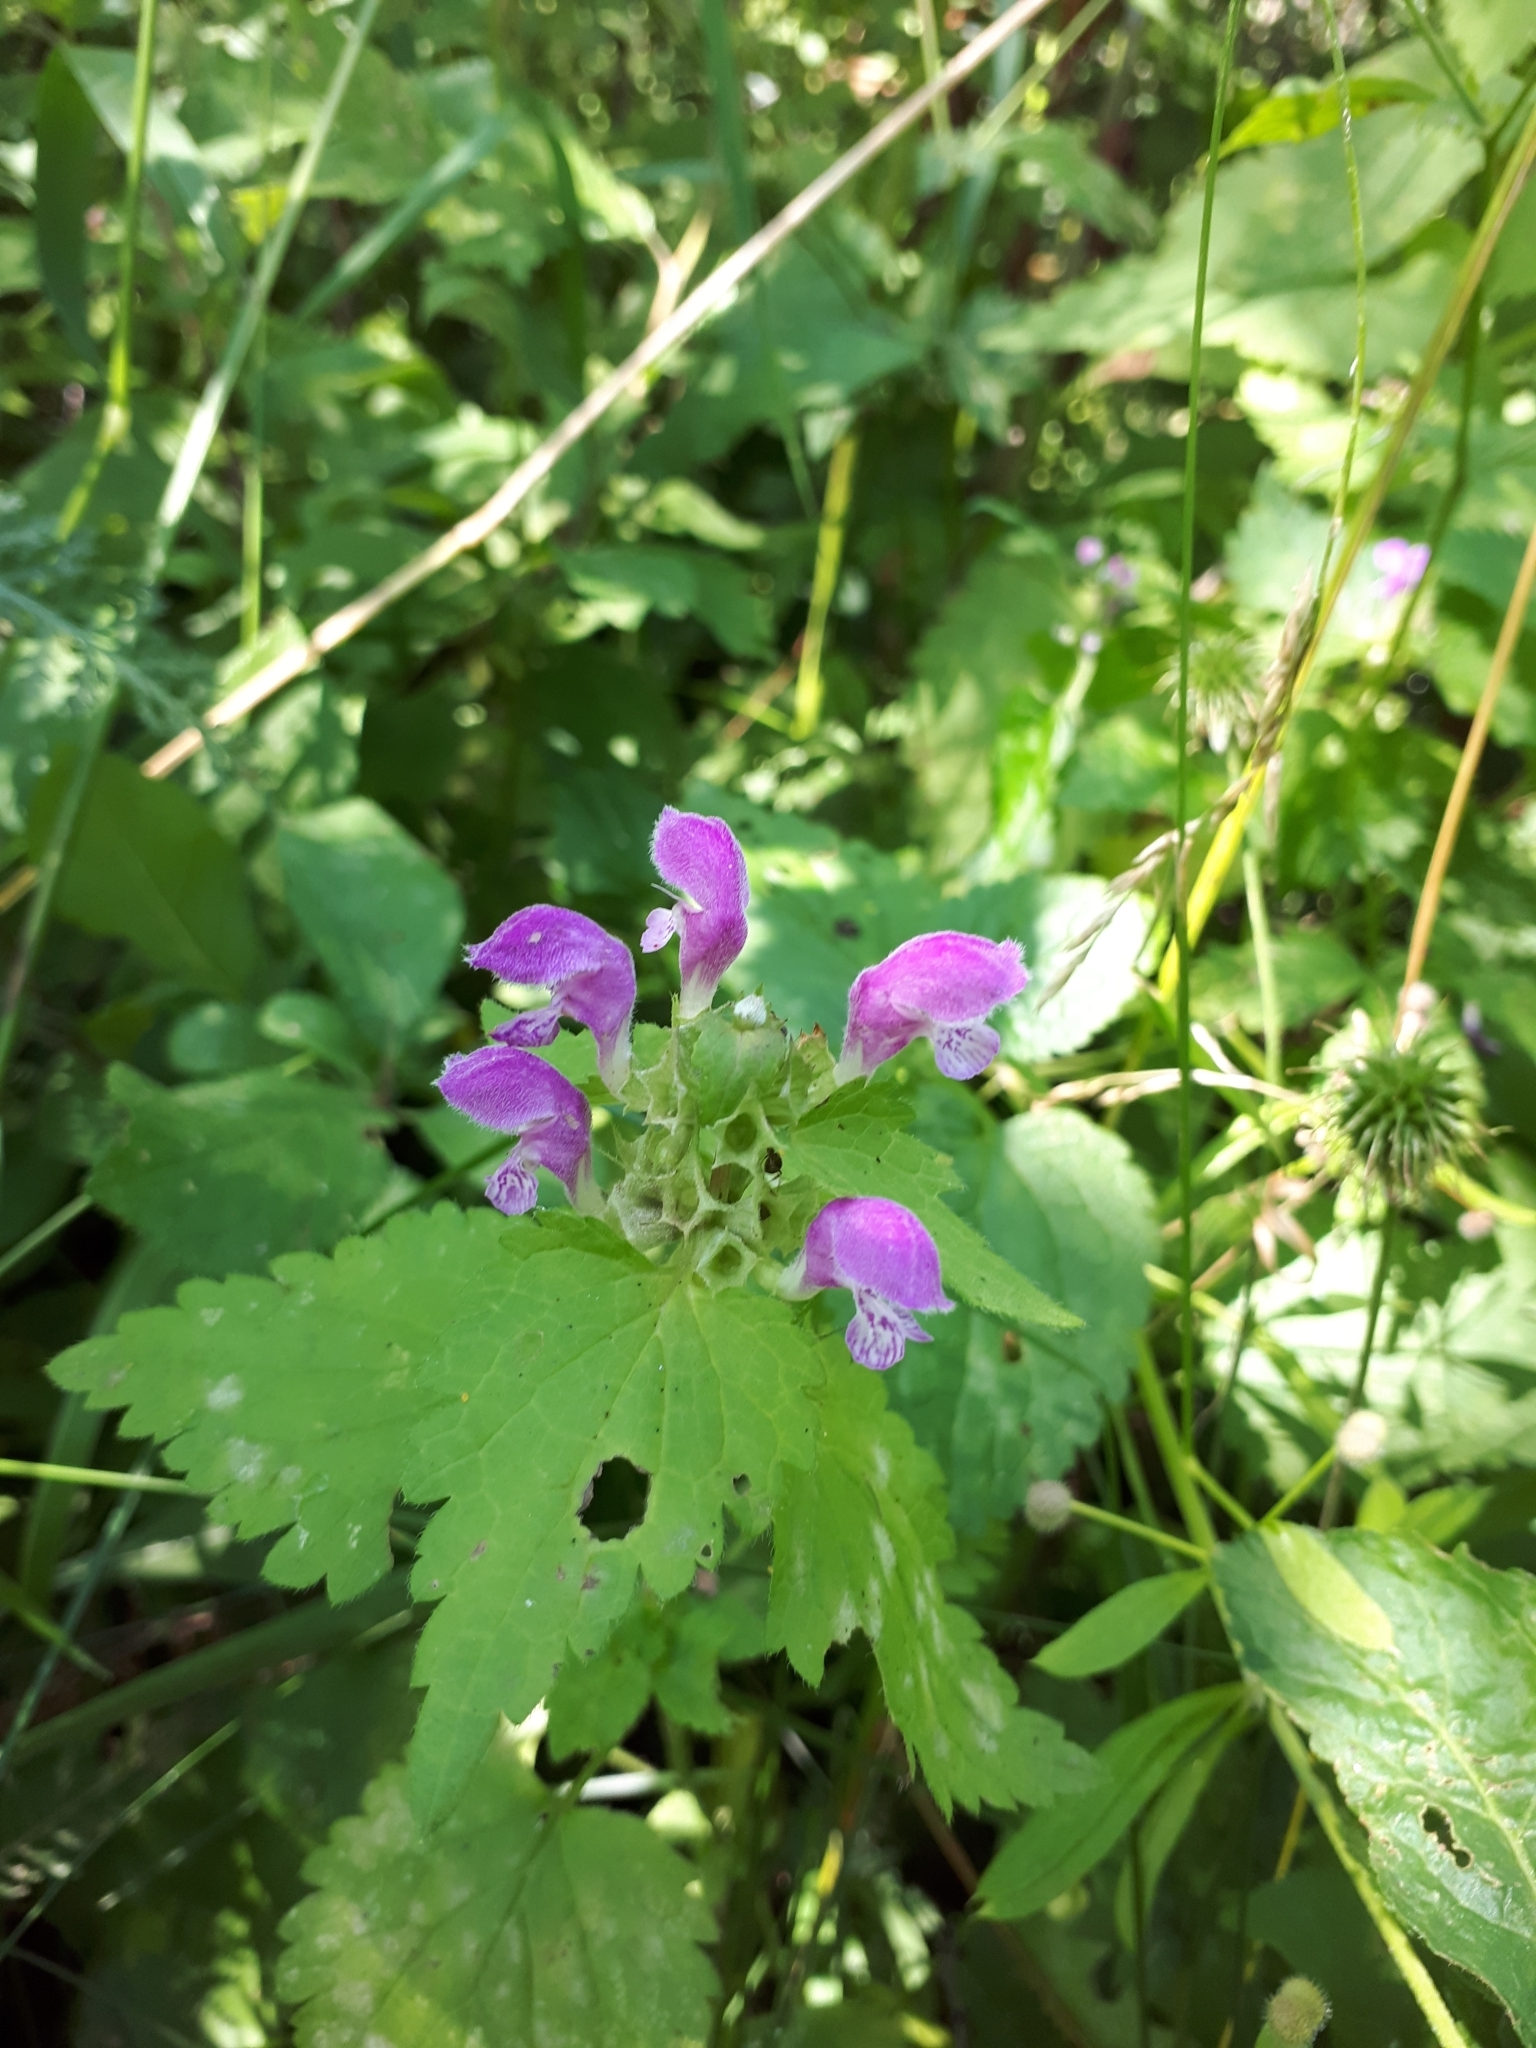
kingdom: Plantae
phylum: Tracheophyta
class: Magnoliopsida
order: Lamiales
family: Lamiaceae
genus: Lamium
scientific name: Lamium maculatum
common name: Spotted dead-nettle
